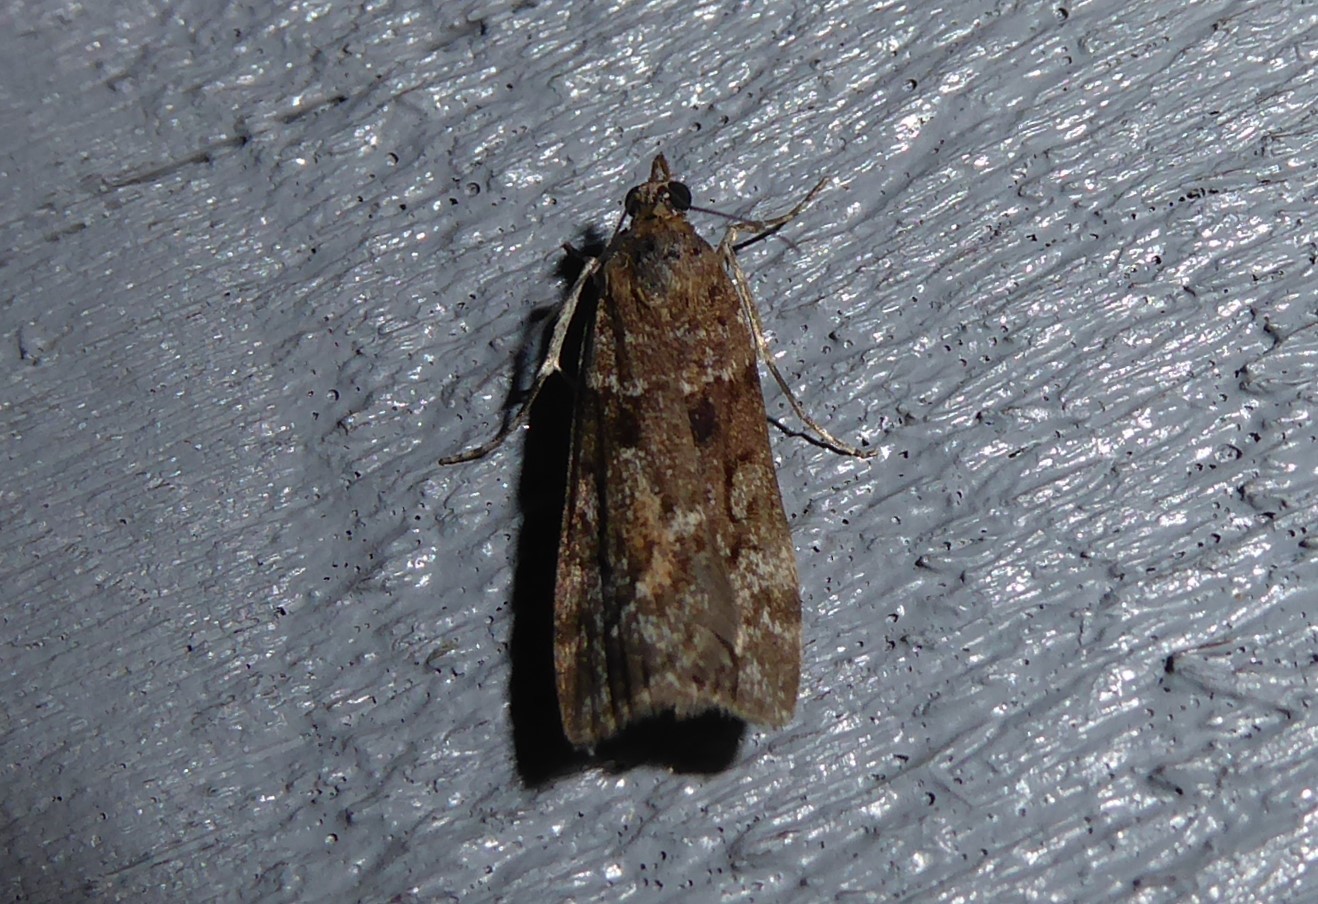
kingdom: Animalia
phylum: Arthropoda
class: Insecta
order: Lepidoptera
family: Crambidae
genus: Eudonia
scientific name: Eudonia submarginalis
